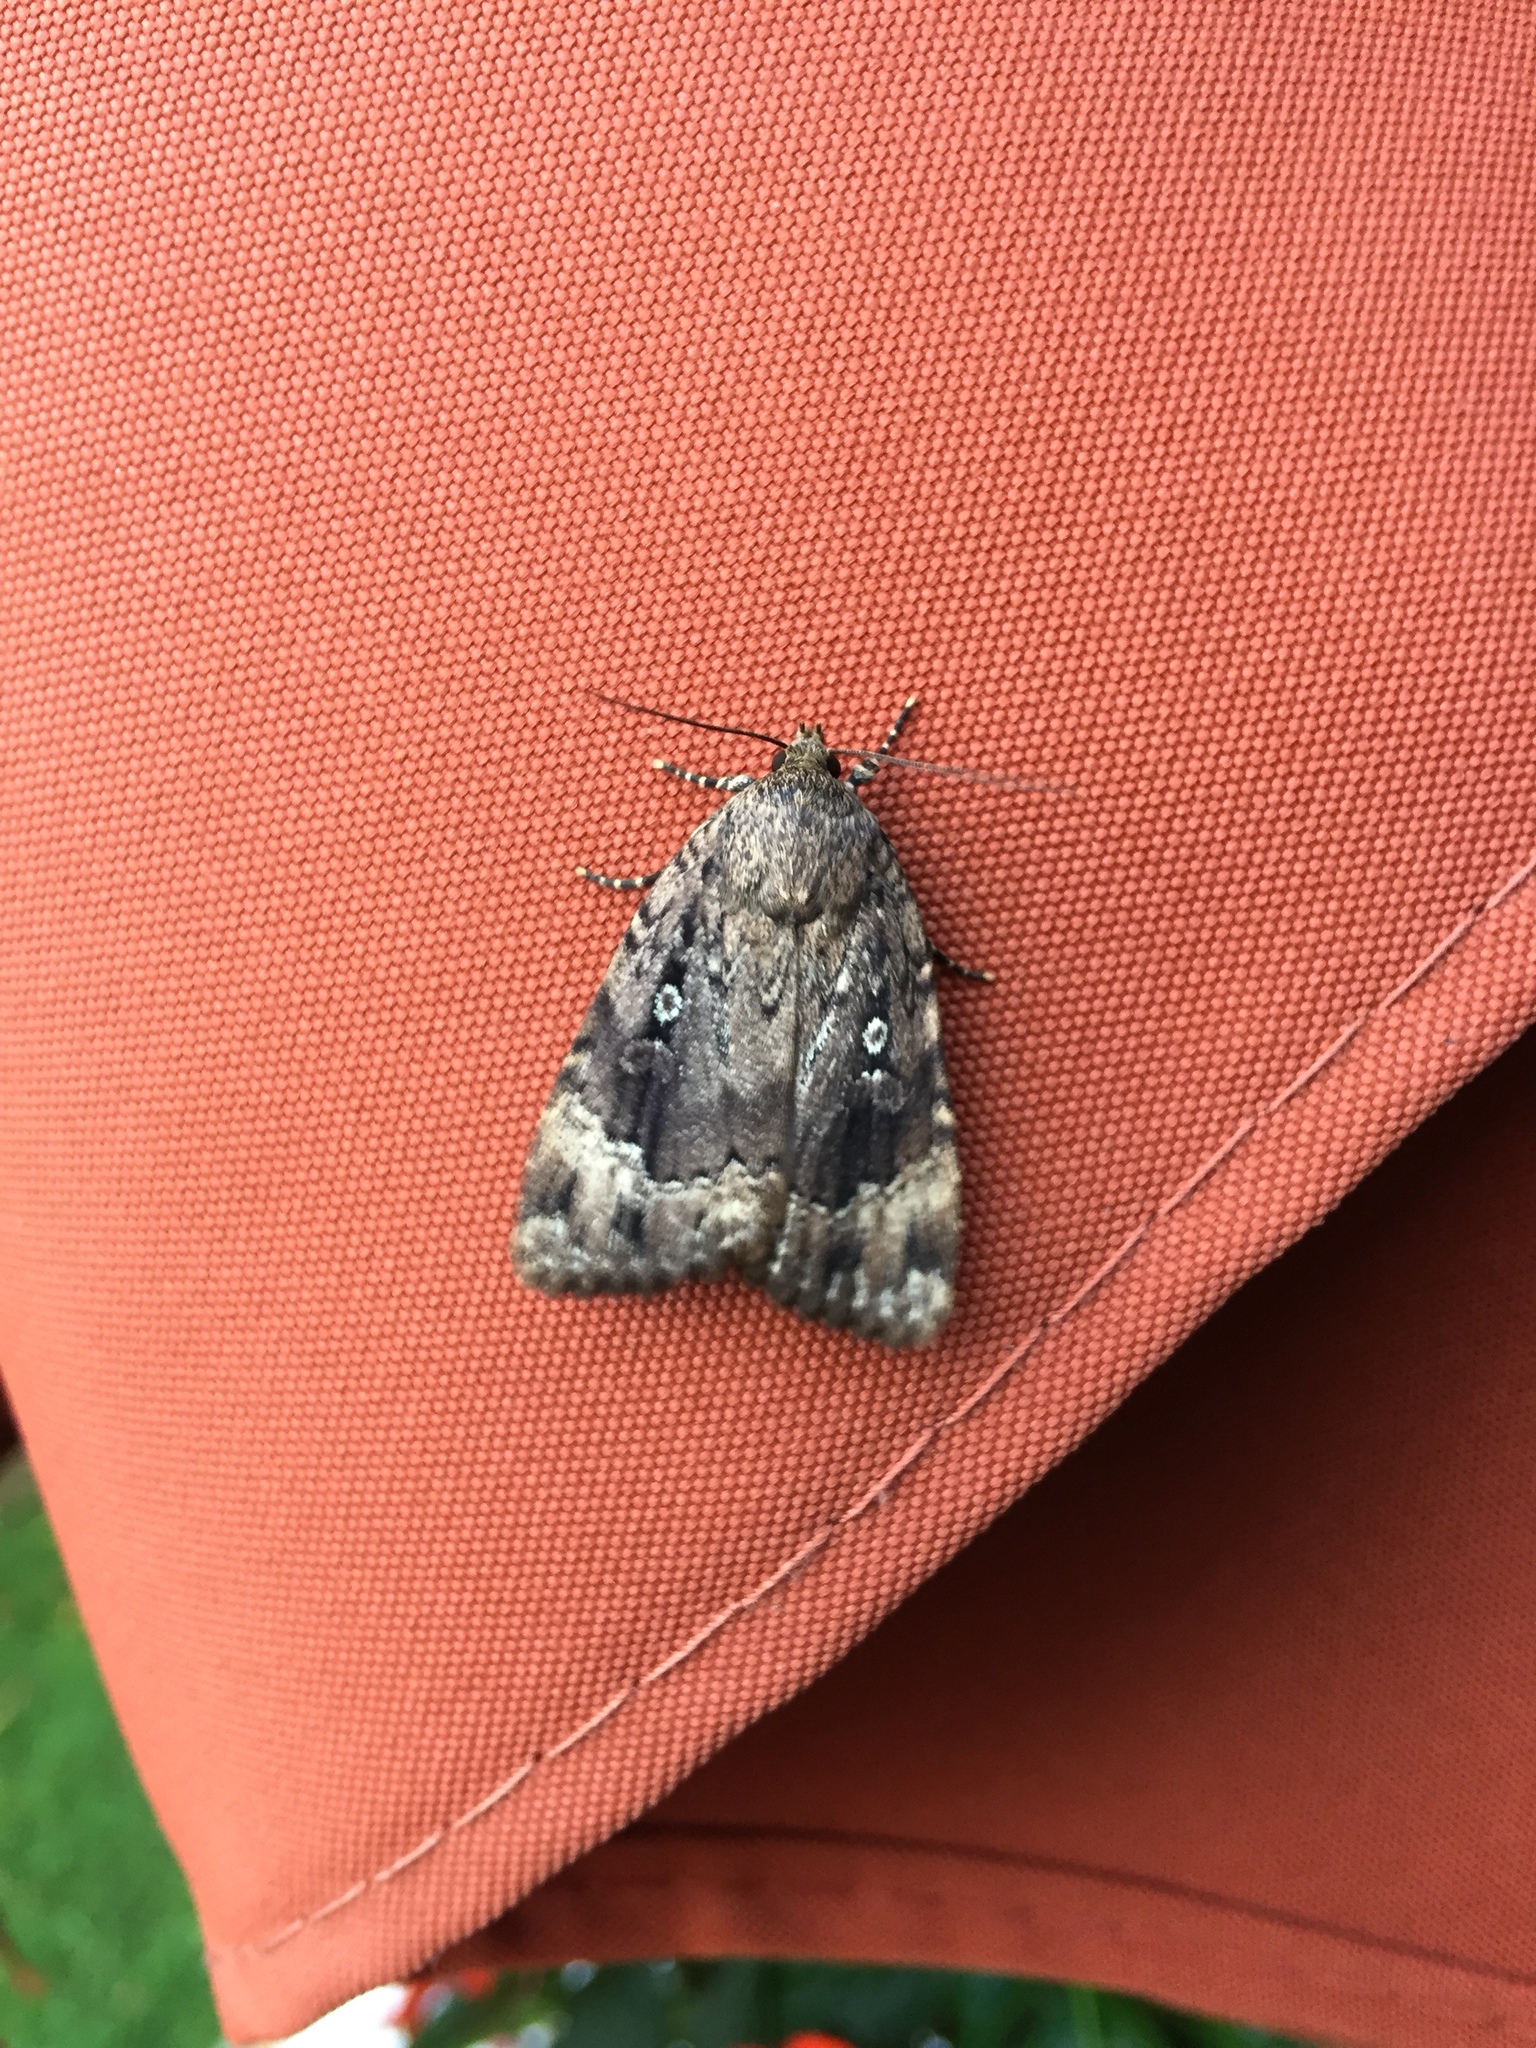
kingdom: Animalia
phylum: Arthropoda
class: Insecta
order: Lepidoptera
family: Noctuidae
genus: Amphipyra
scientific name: Amphipyra pyramidoides
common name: American copper underwing
